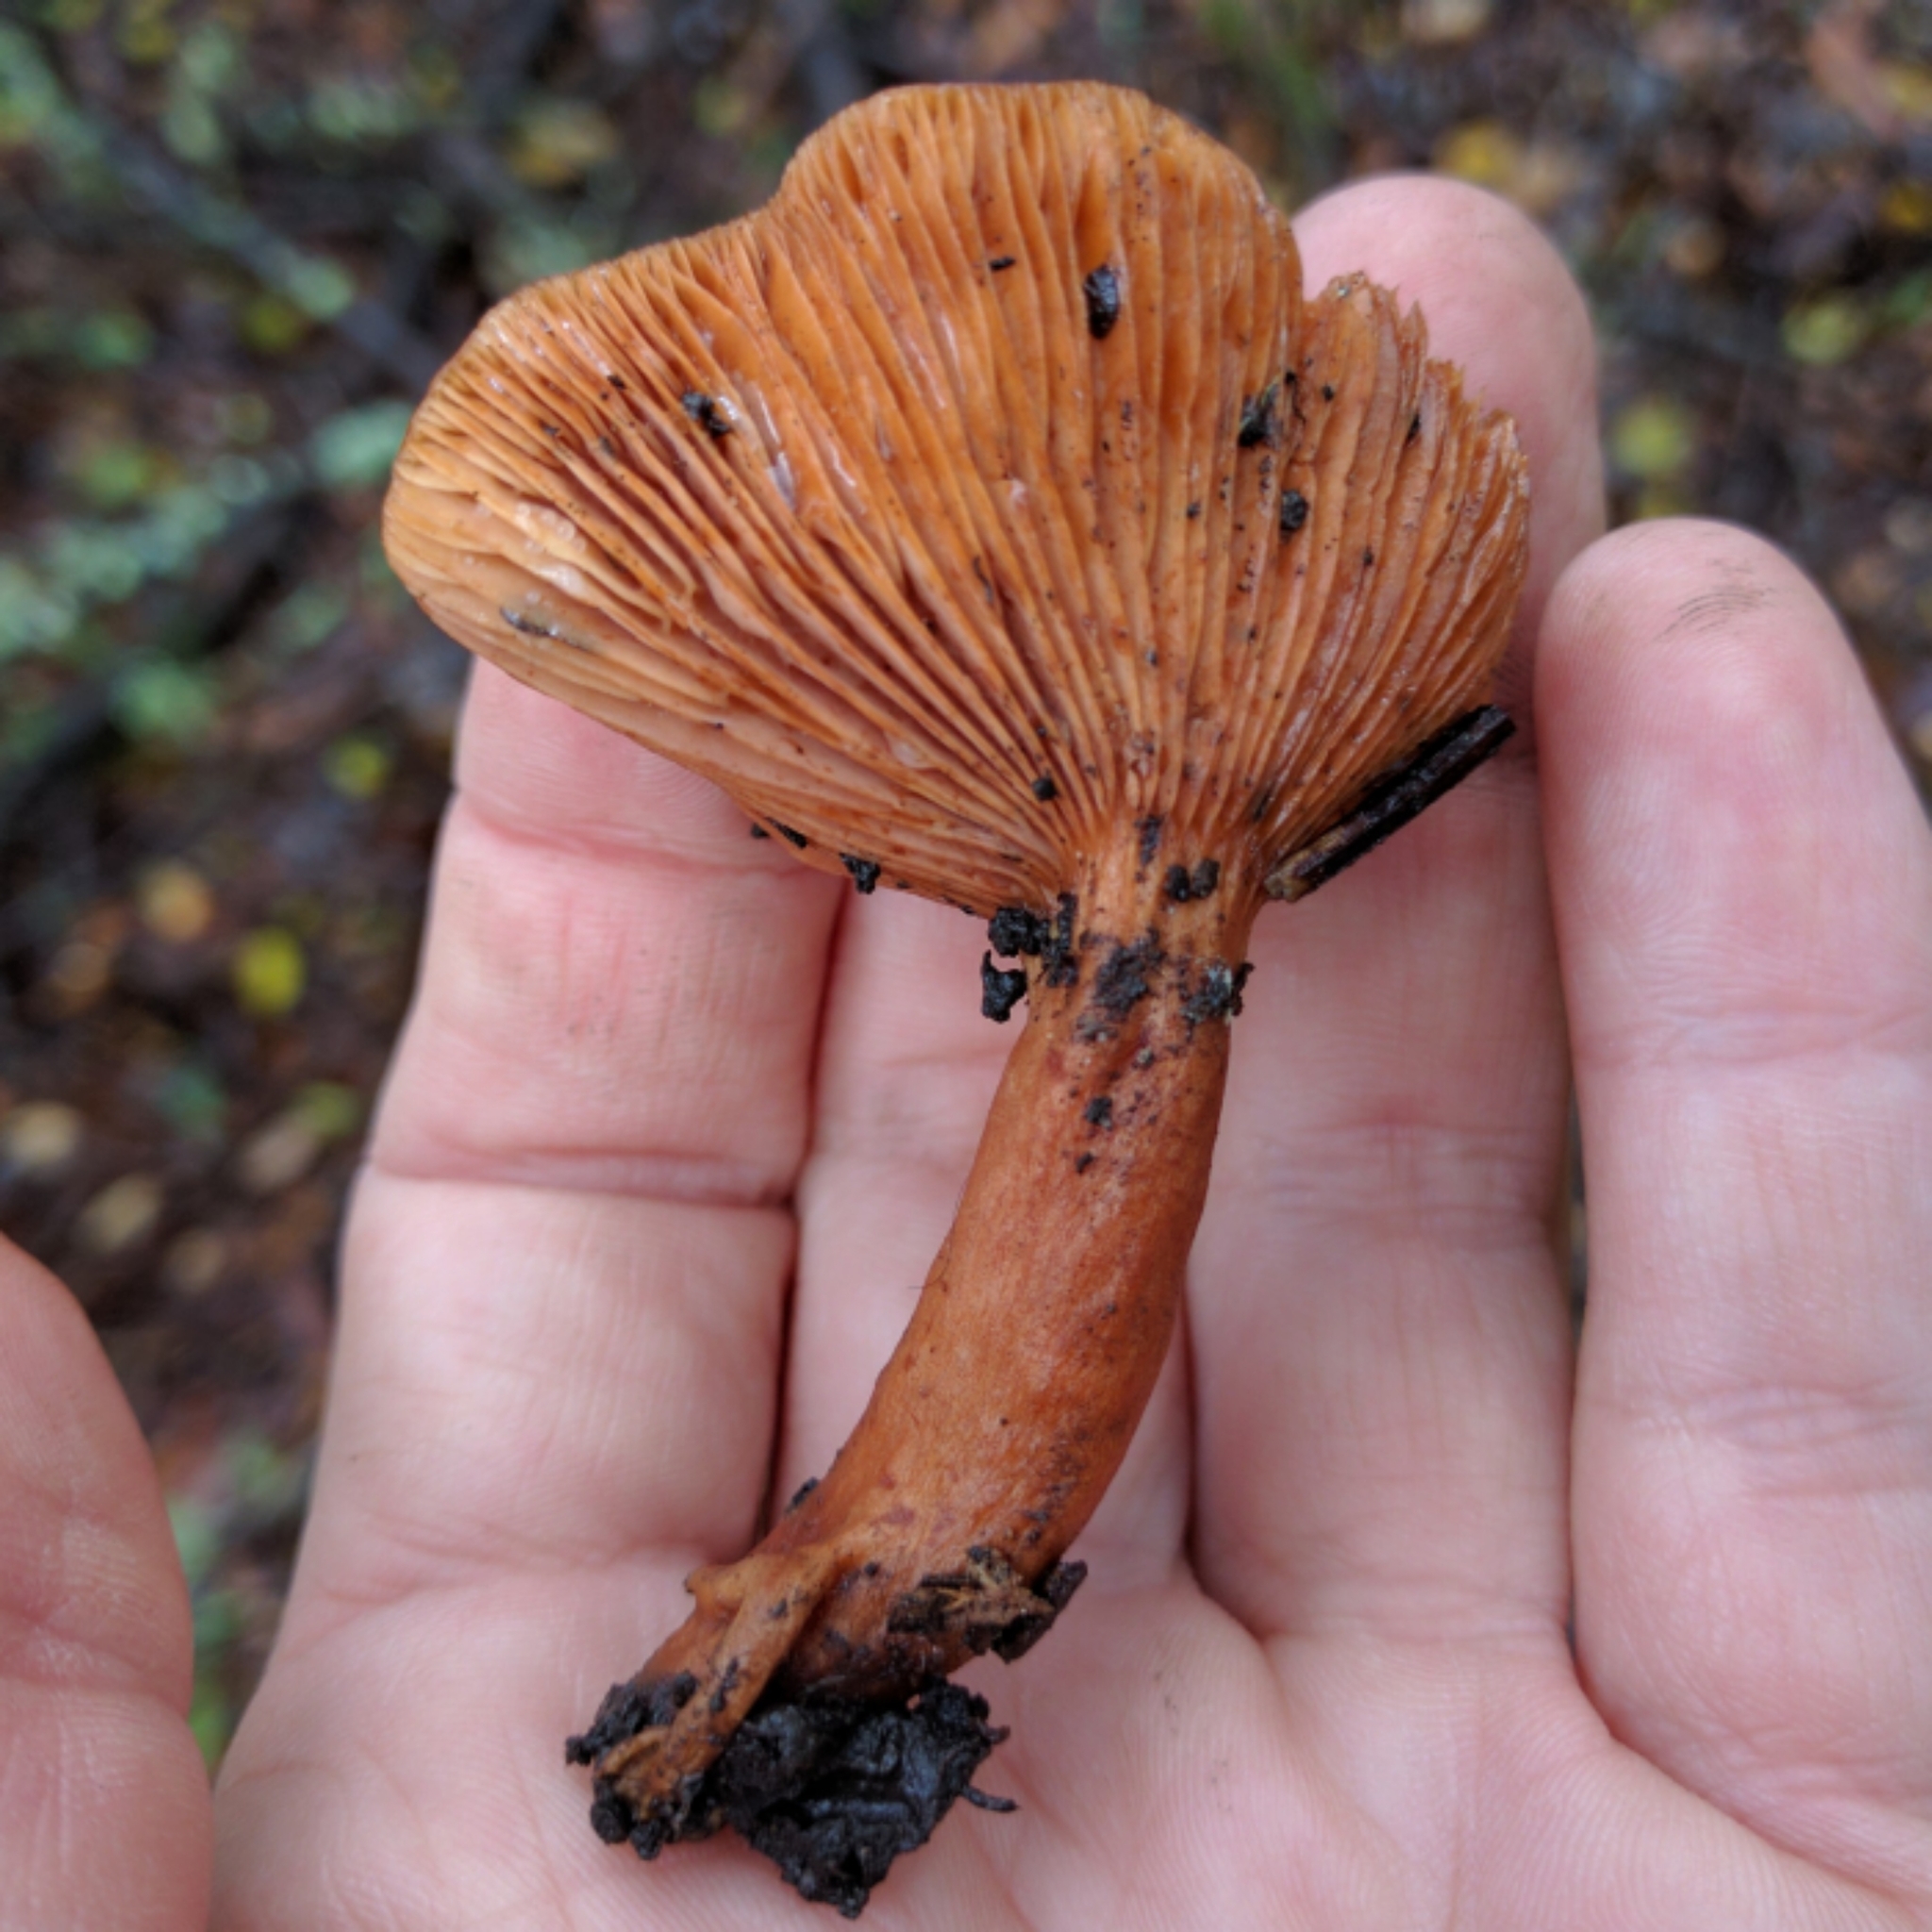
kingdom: Fungi
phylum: Basidiomycota
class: Agaricomycetes
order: Russulales
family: Russulaceae
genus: Lactarius
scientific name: Lactarius rubidus
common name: Candy cap
